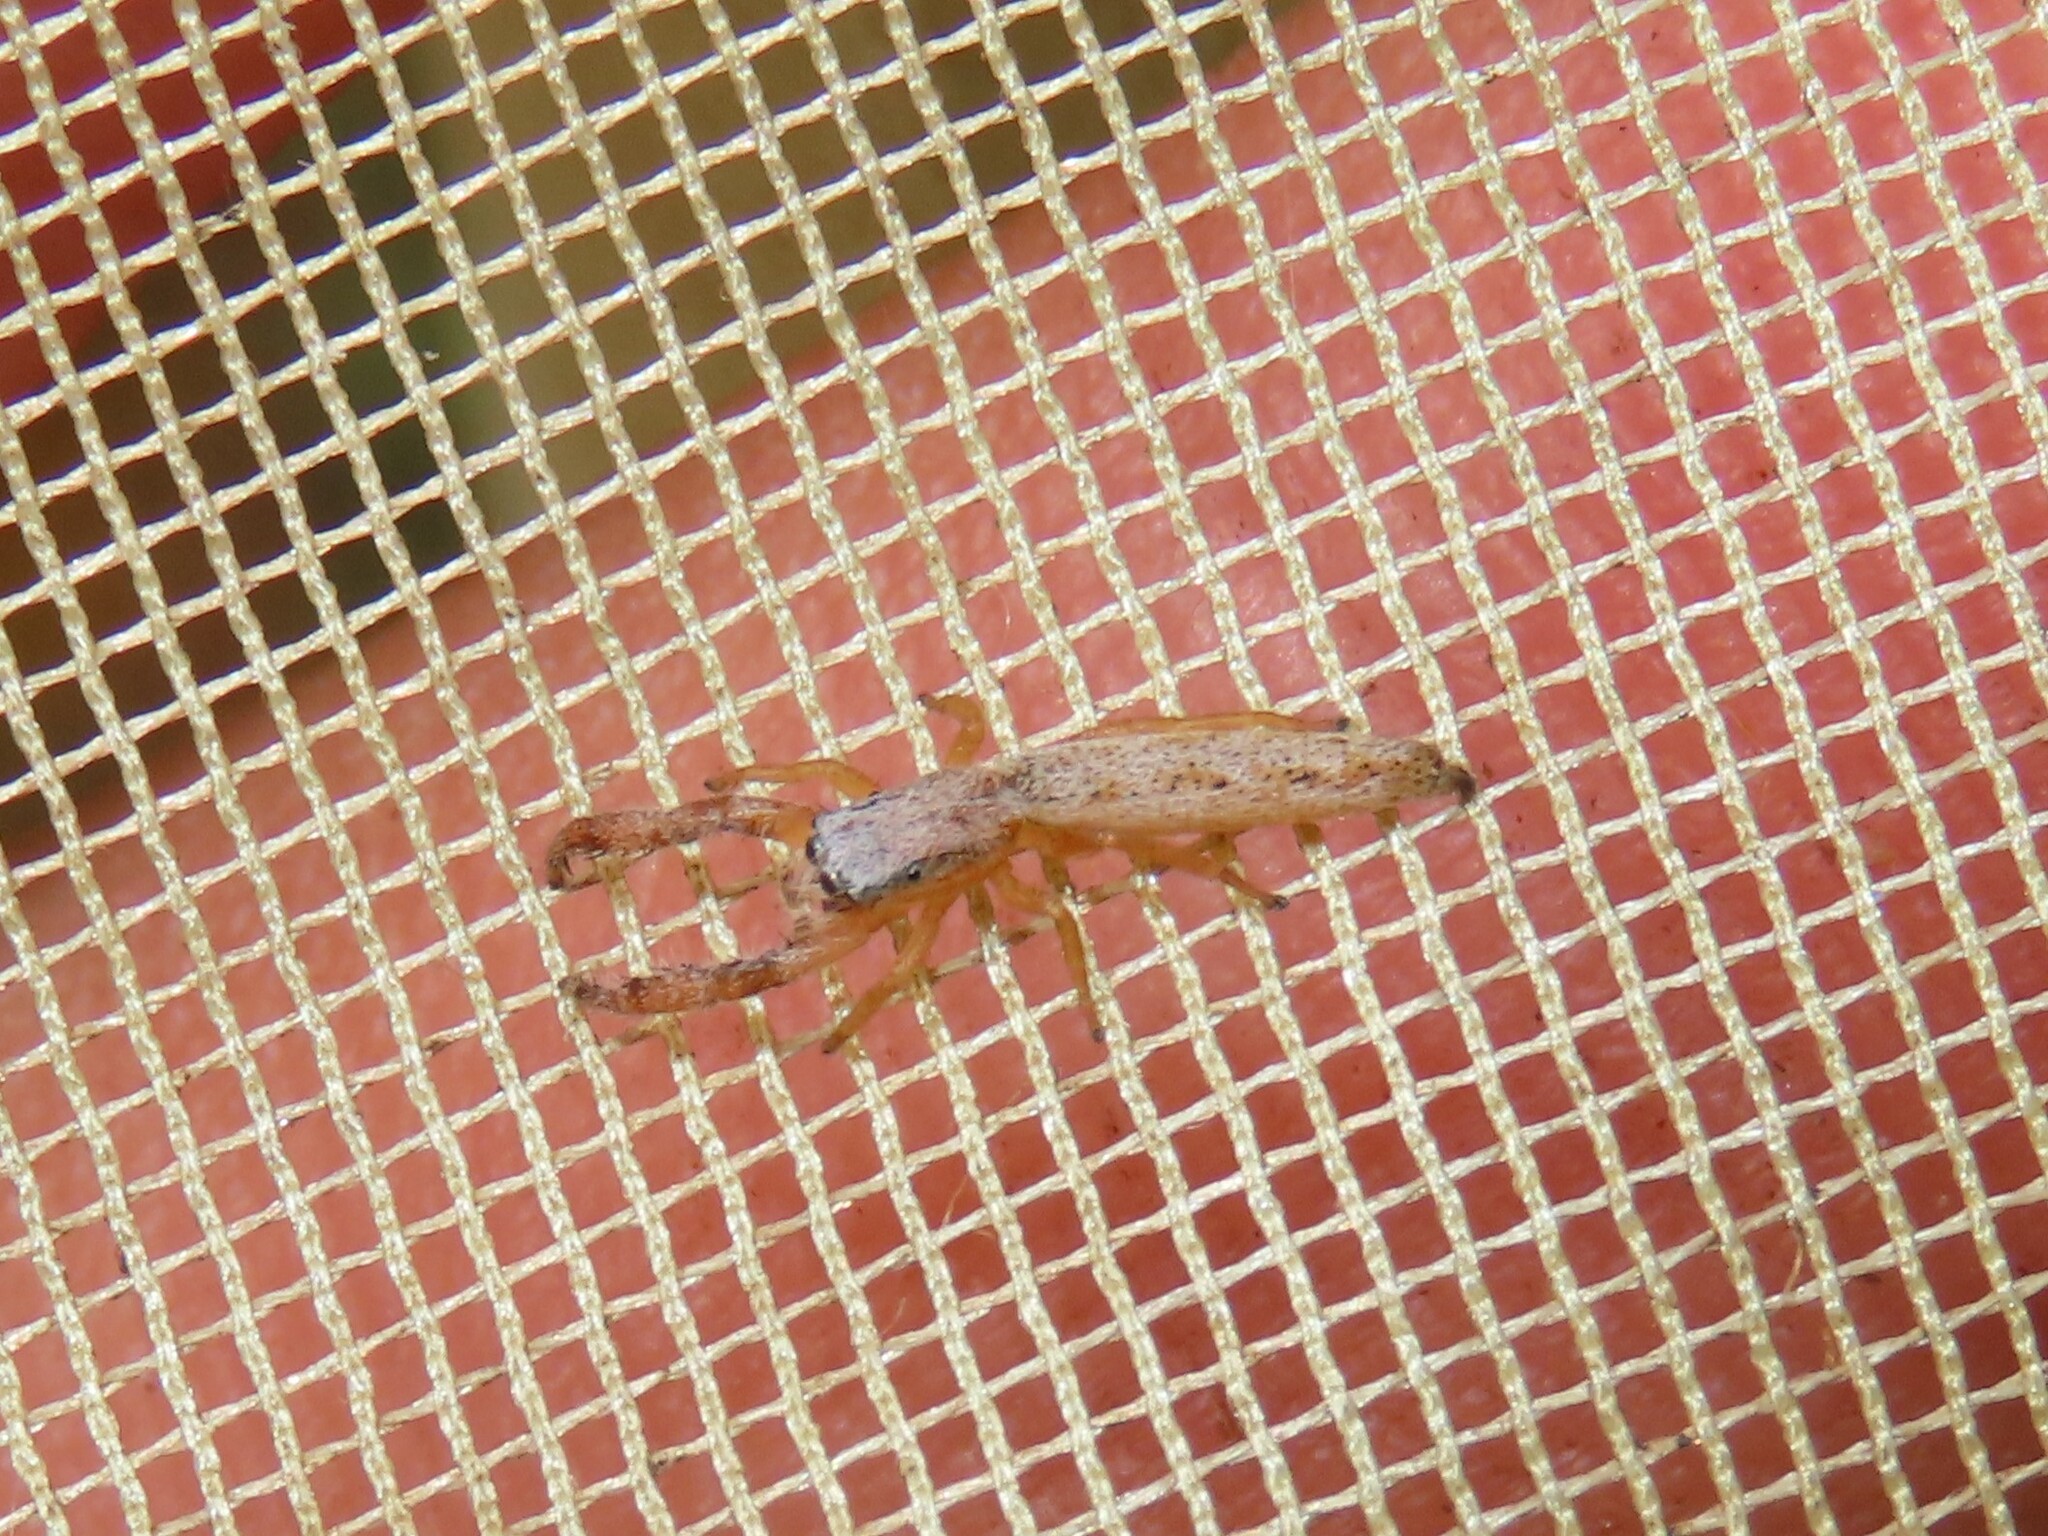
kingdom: Animalia
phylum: Arthropoda
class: Arachnida
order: Araneae
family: Salticidae
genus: Marpissa
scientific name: Marpissa pikei
